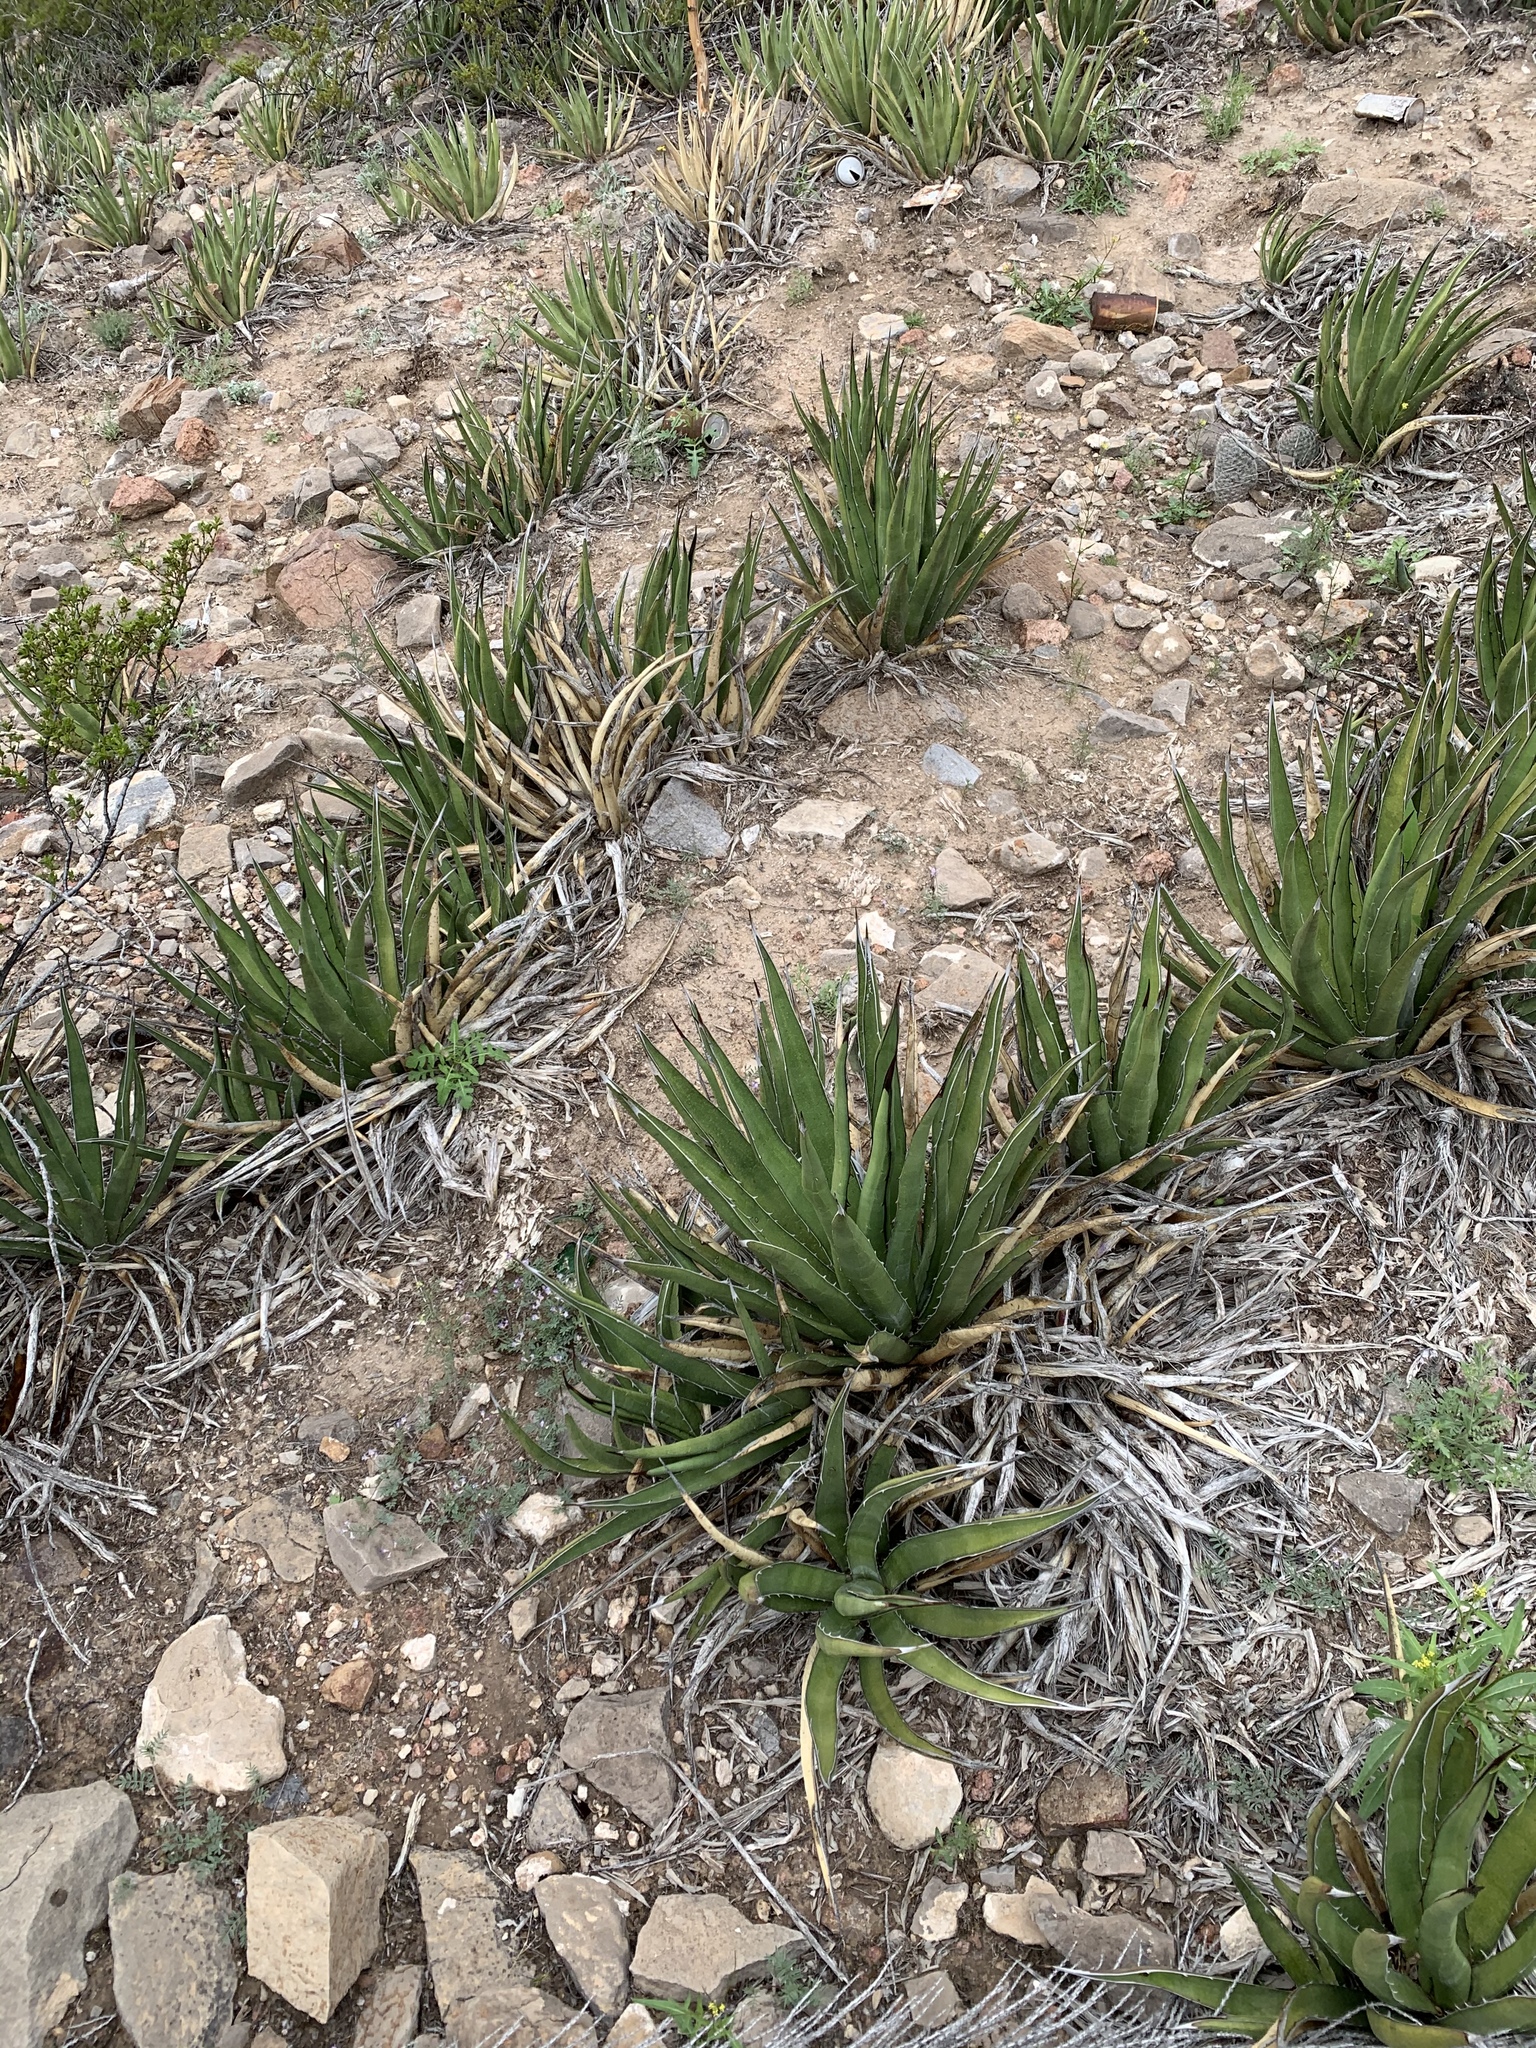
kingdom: Plantae
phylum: Tracheophyta
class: Liliopsida
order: Asparagales
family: Asparagaceae
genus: Agave
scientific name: Agave lechuguilla
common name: Lecheguilla agave
